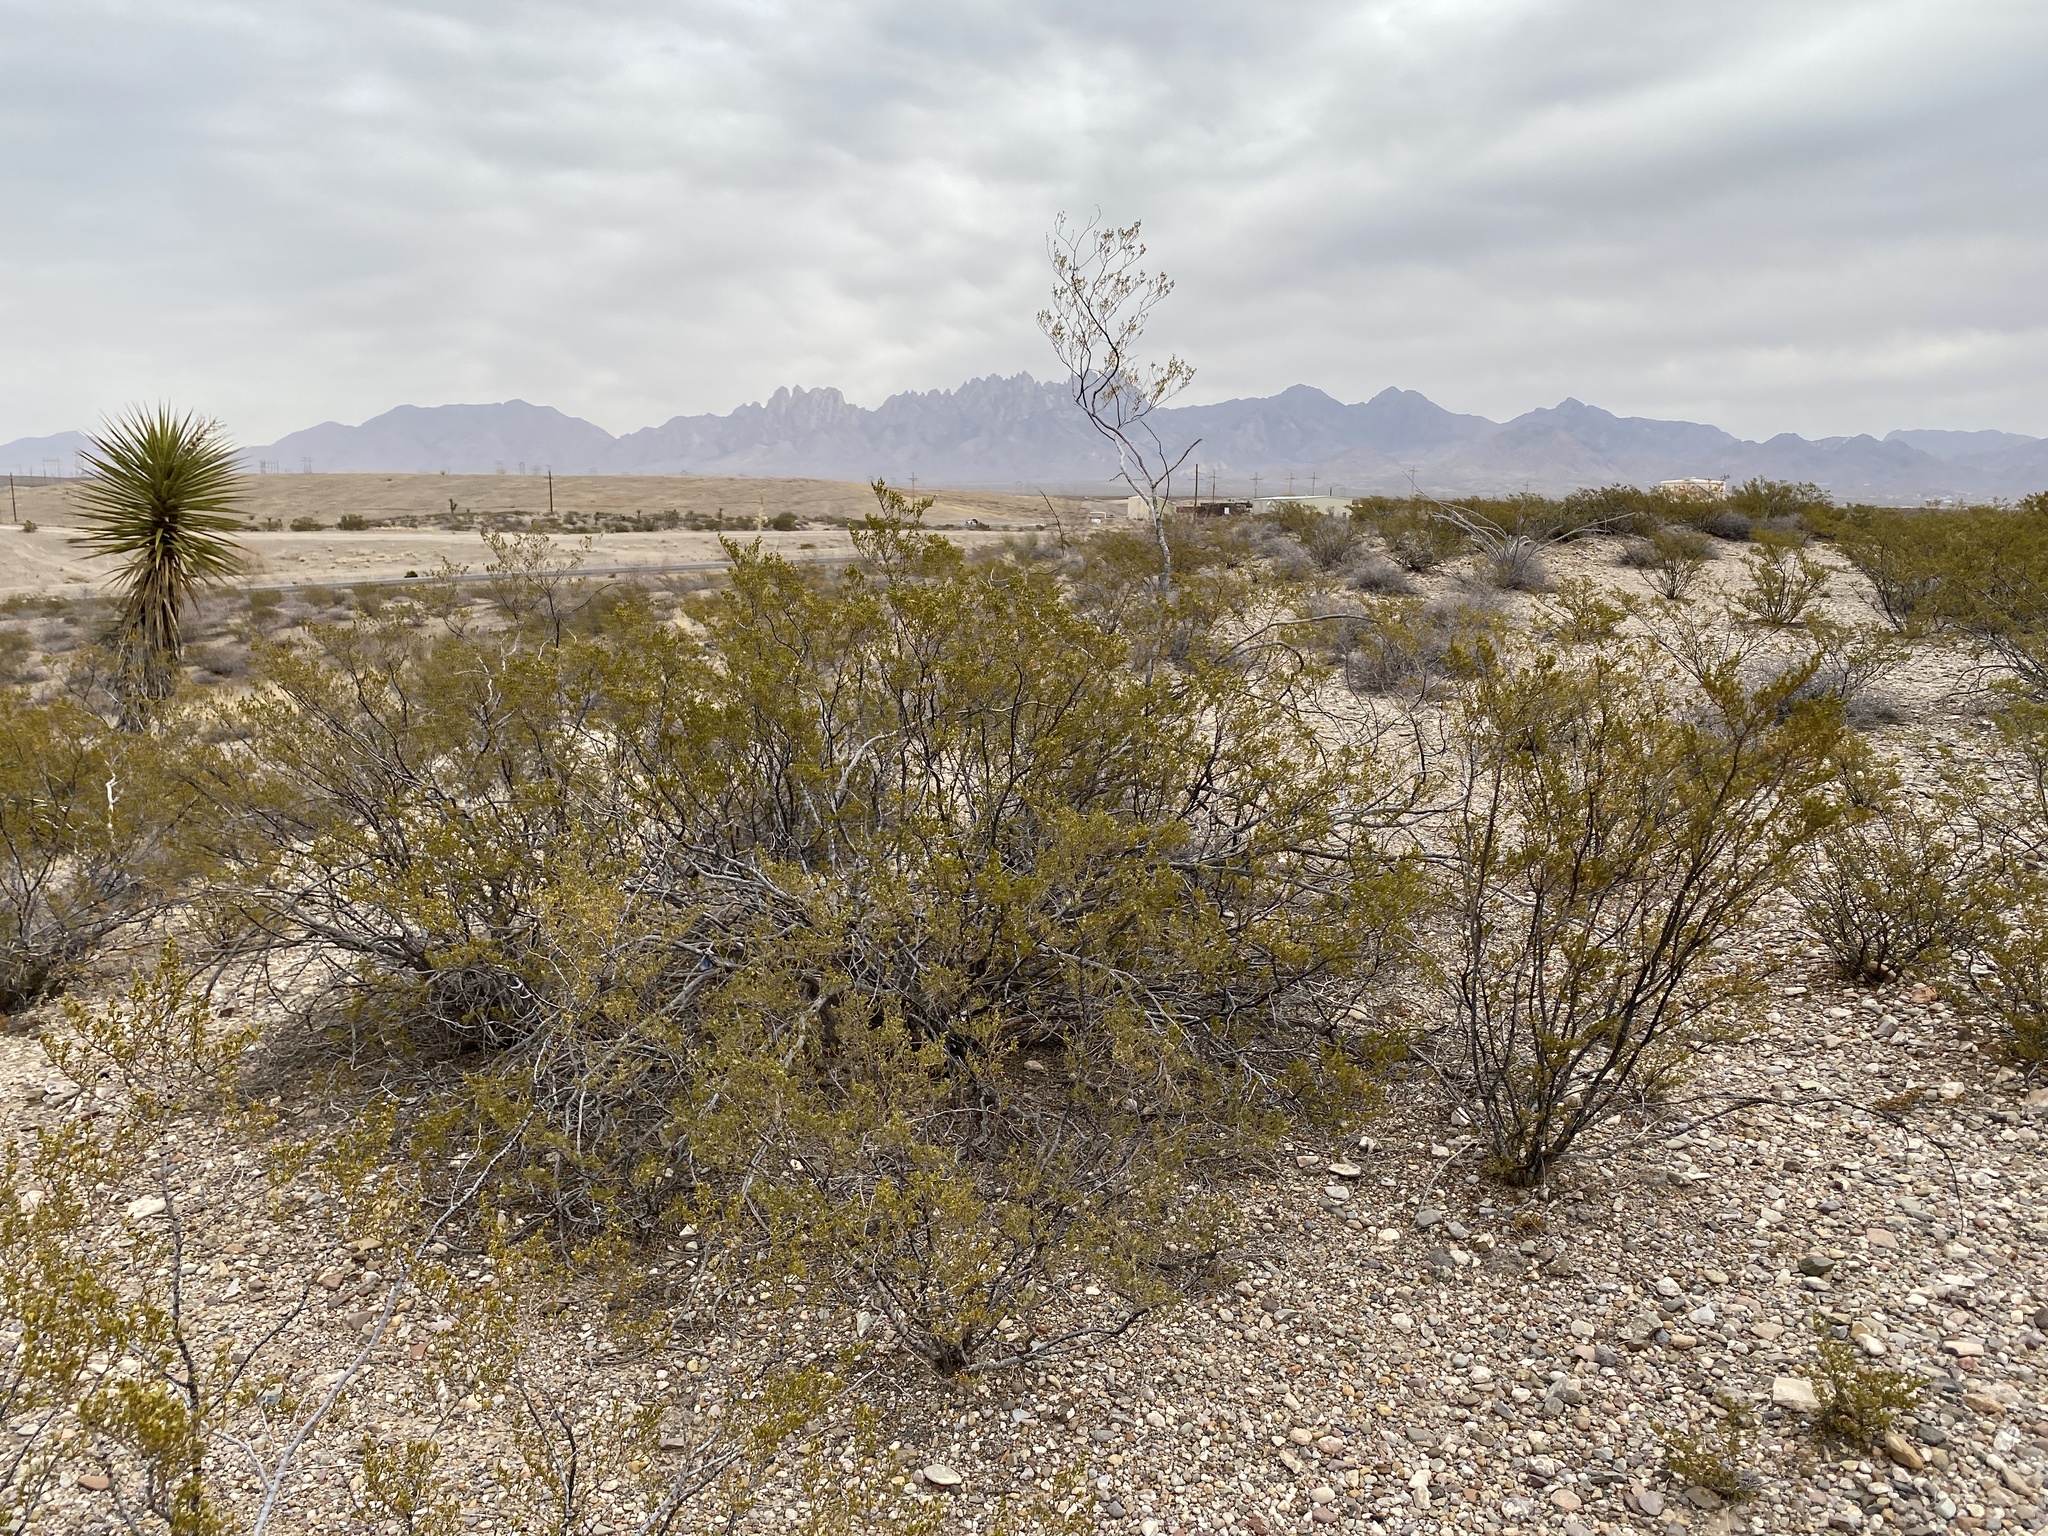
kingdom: Plantae
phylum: Tracheophyta
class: Magnoliopsida
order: Zygophyllales
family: Zygophyllaceae
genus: Larrea
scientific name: Larrea tridentata
